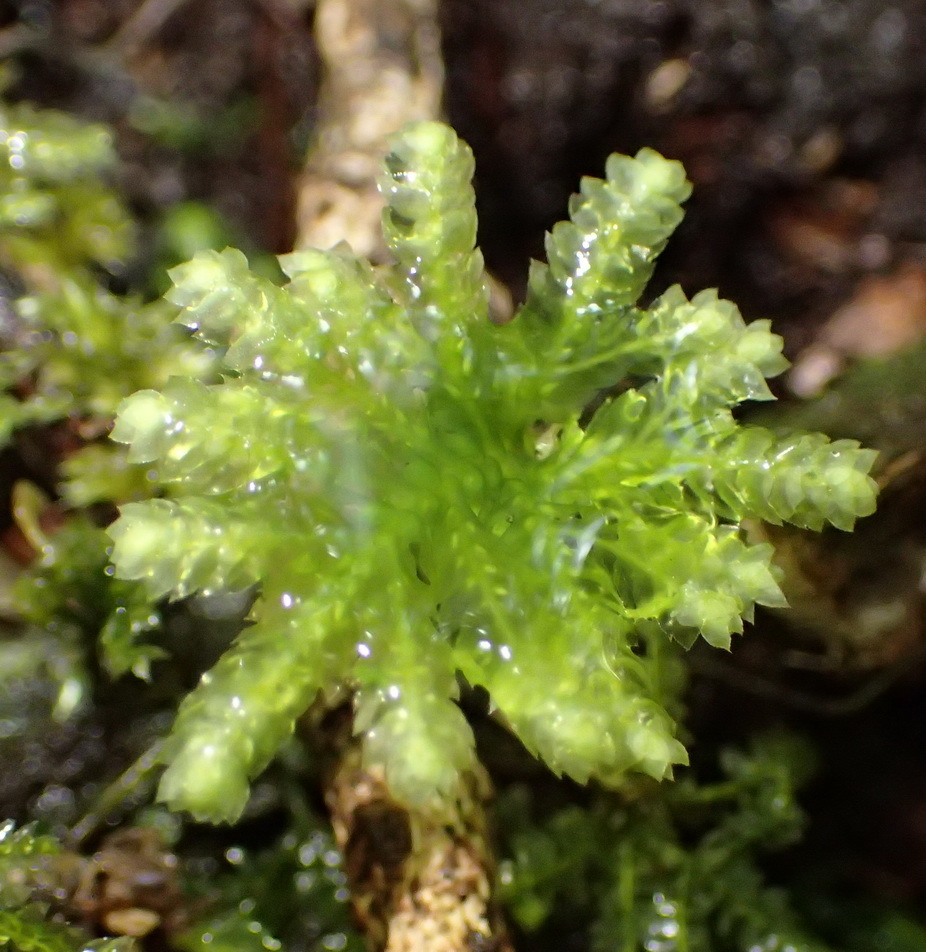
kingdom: Plantae
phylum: Bryophyta
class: Bryopsida
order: Hypopterygiales
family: Hypopterygiaceae
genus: Hypopterygium
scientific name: Hypopterygium tamarisci
